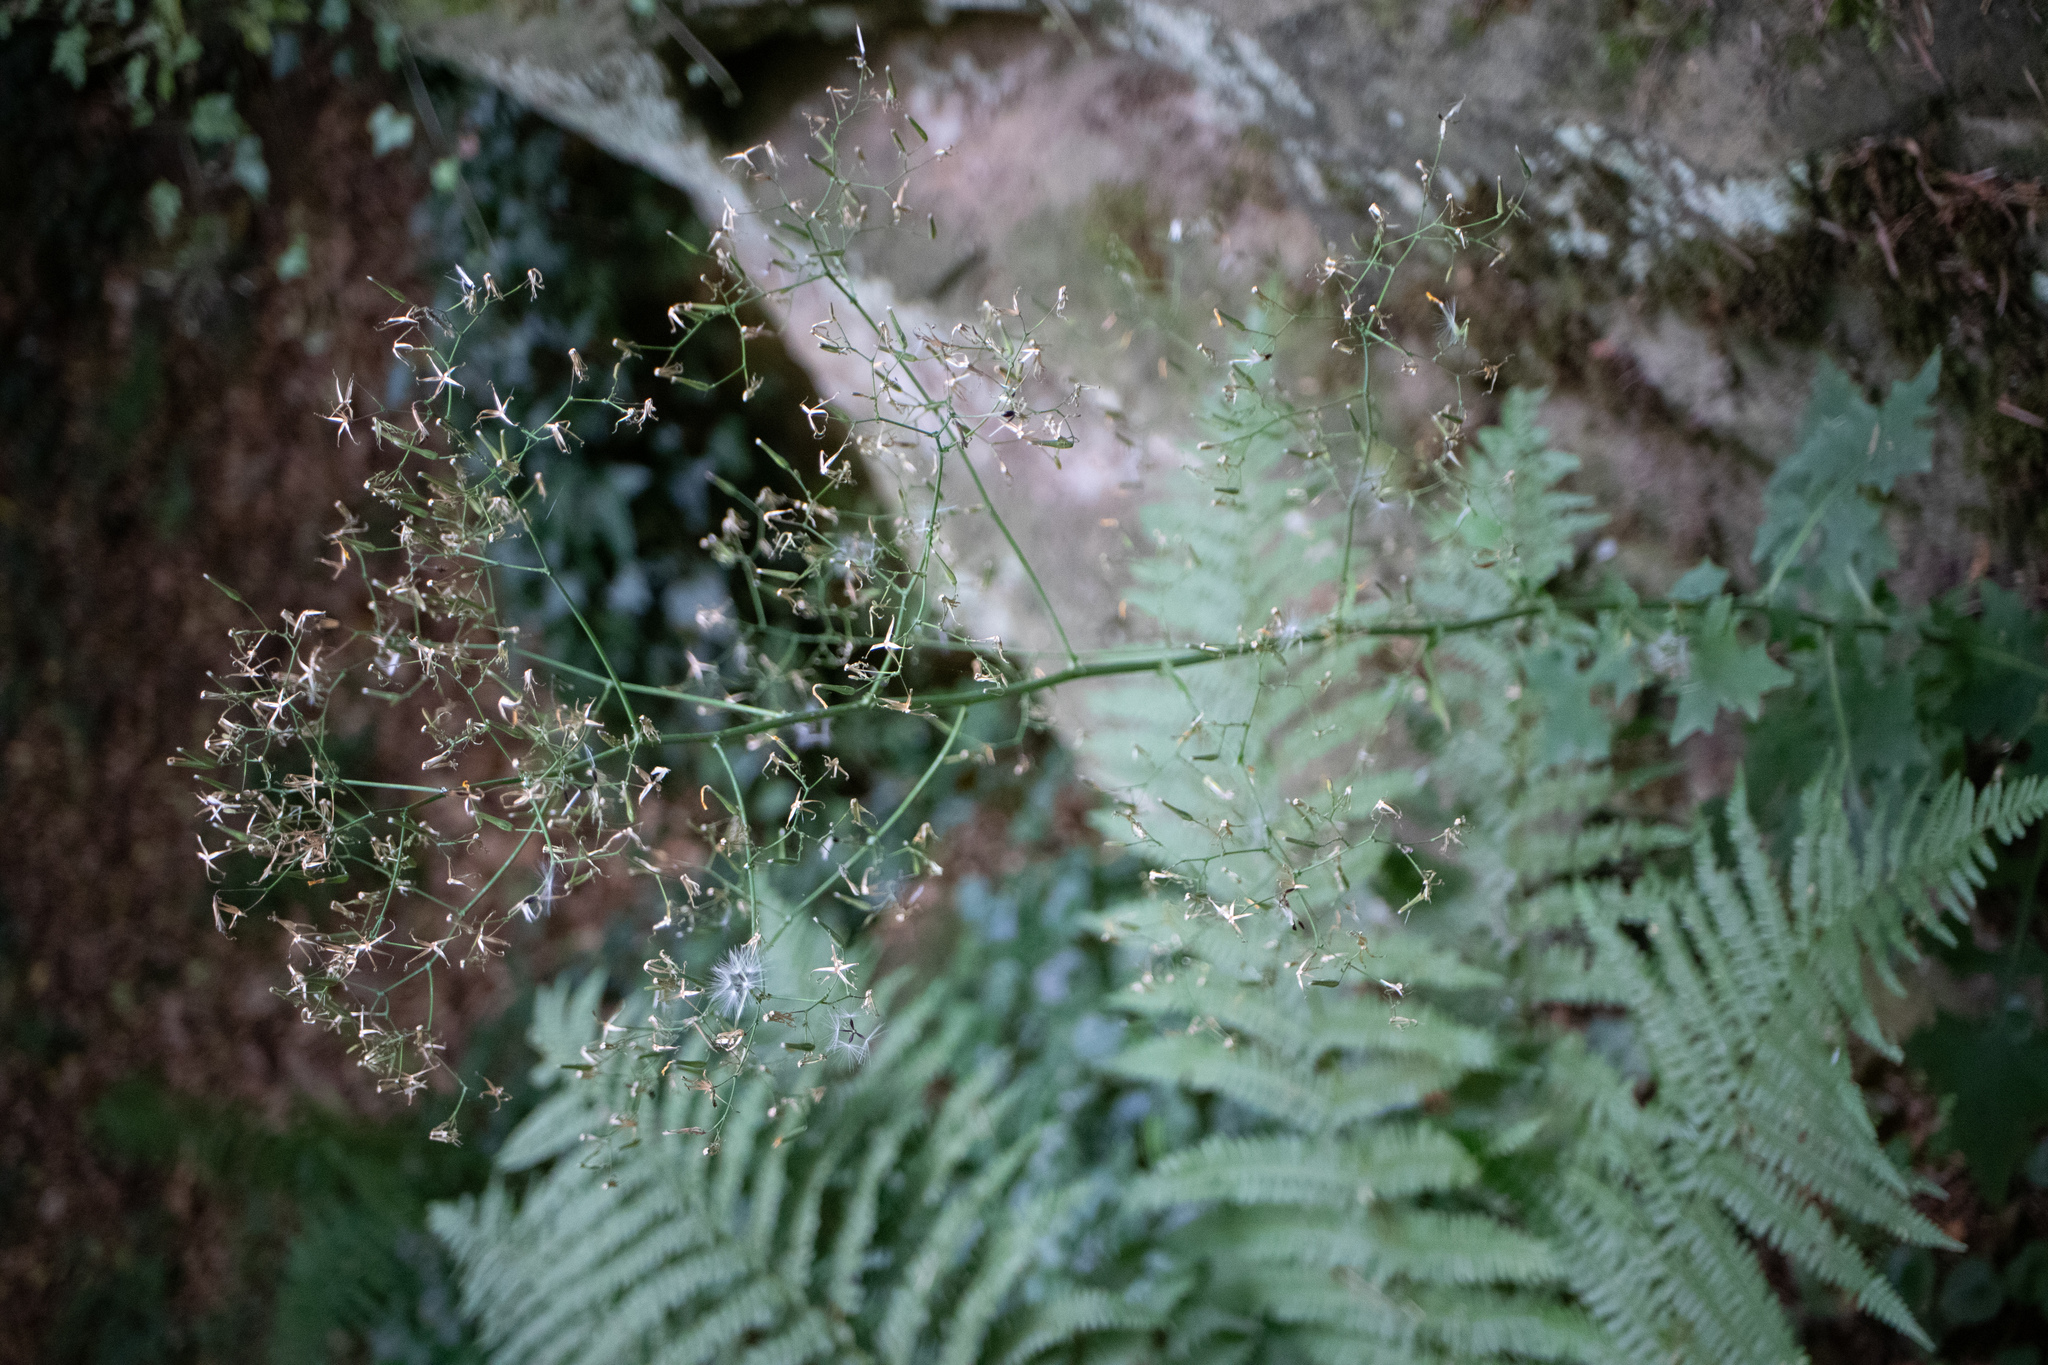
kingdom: Plantae
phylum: Tracheophyta
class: Magnoliopsida
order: Asterales
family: Asteraceae
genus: Mycelis
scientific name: Mycelis muralis
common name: Wall lettuce
